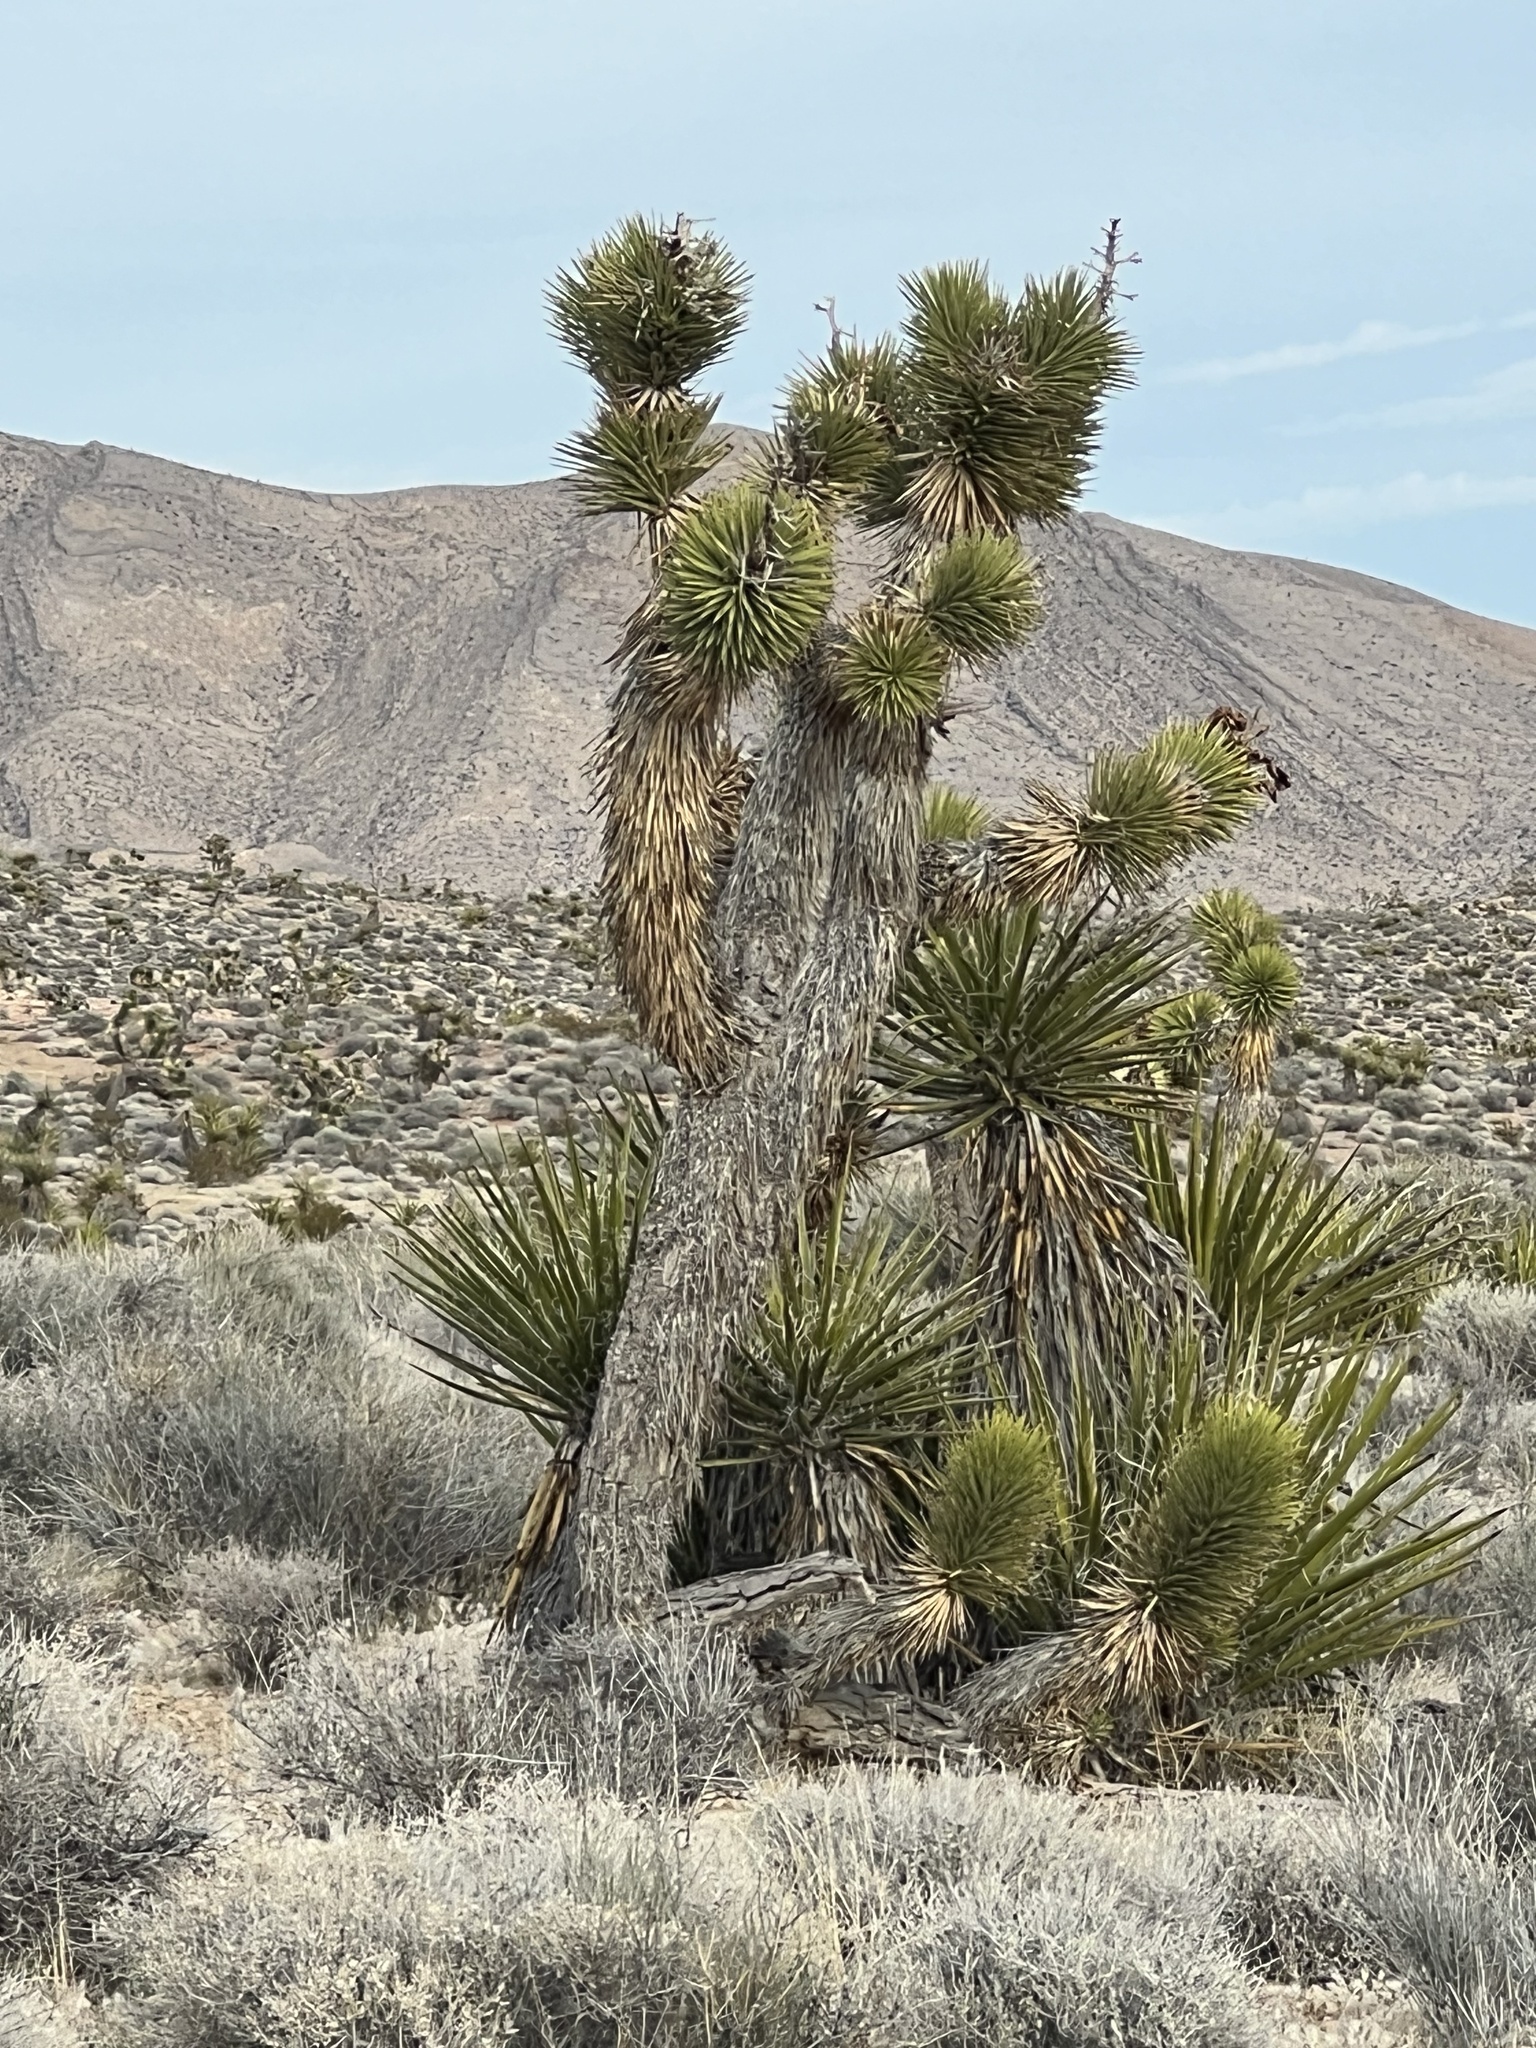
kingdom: Plantae
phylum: Tracheophyta
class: Liliopsida
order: Asparagales
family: Asparagaceae
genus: Yucca
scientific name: Yucca brevifolia
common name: Joshua tree
